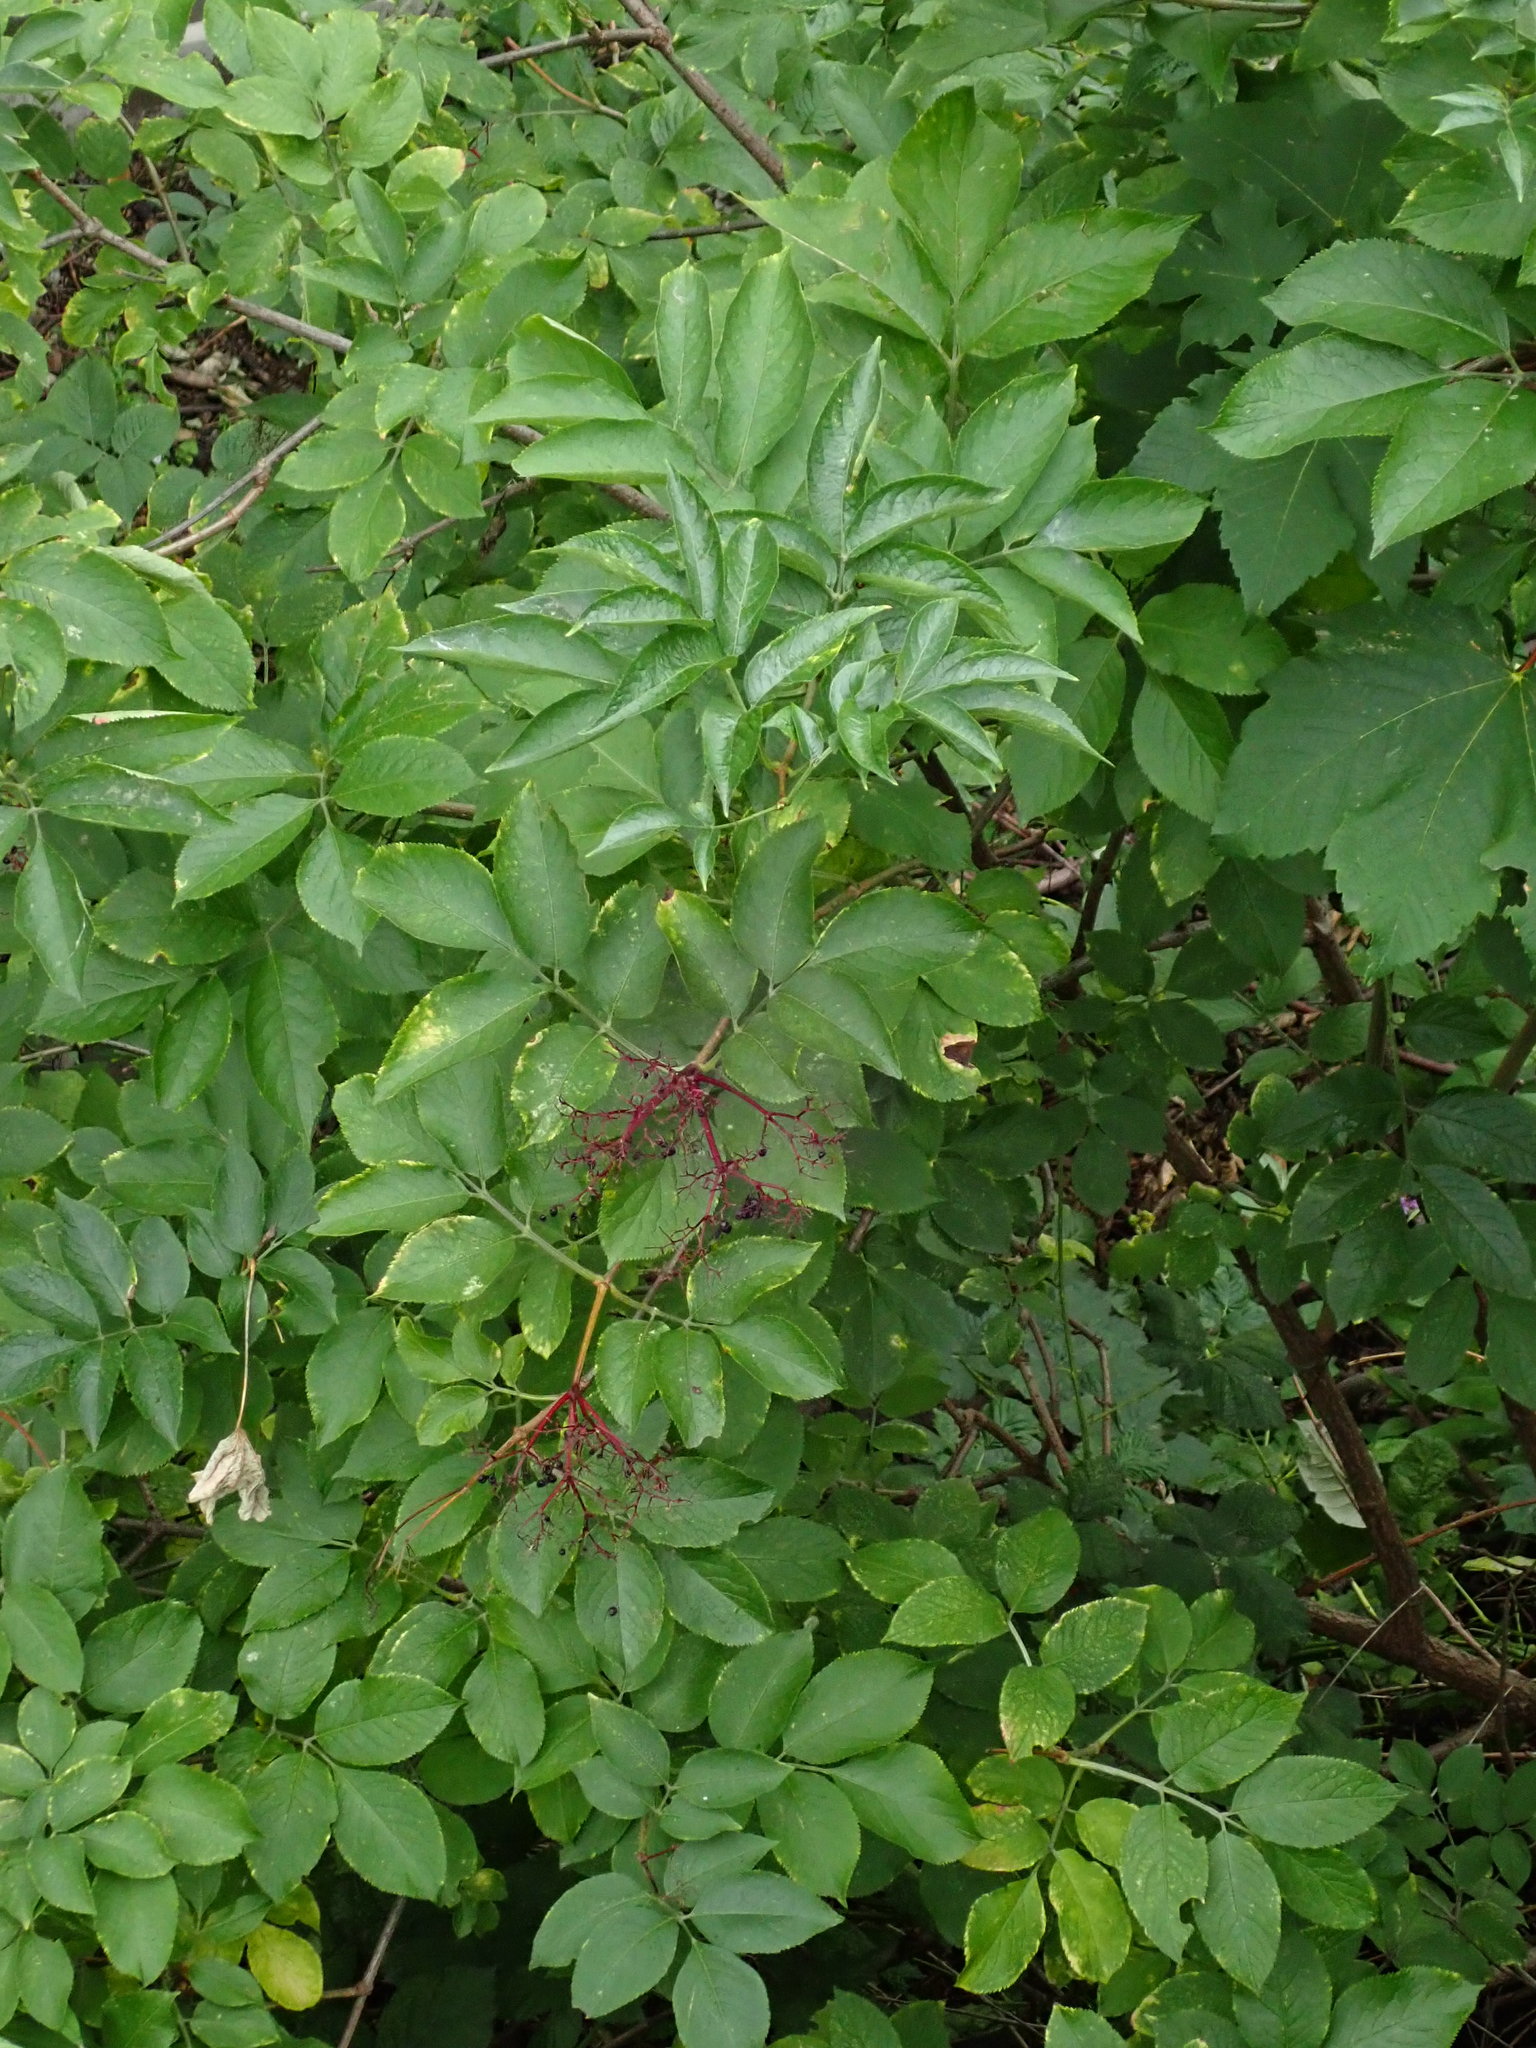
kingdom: Plantae
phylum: Tracheophyta
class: Magnoliopsida
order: Dipsacales
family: Viburnaceae
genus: Sambucus
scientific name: Sambucus nigra
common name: Elder
